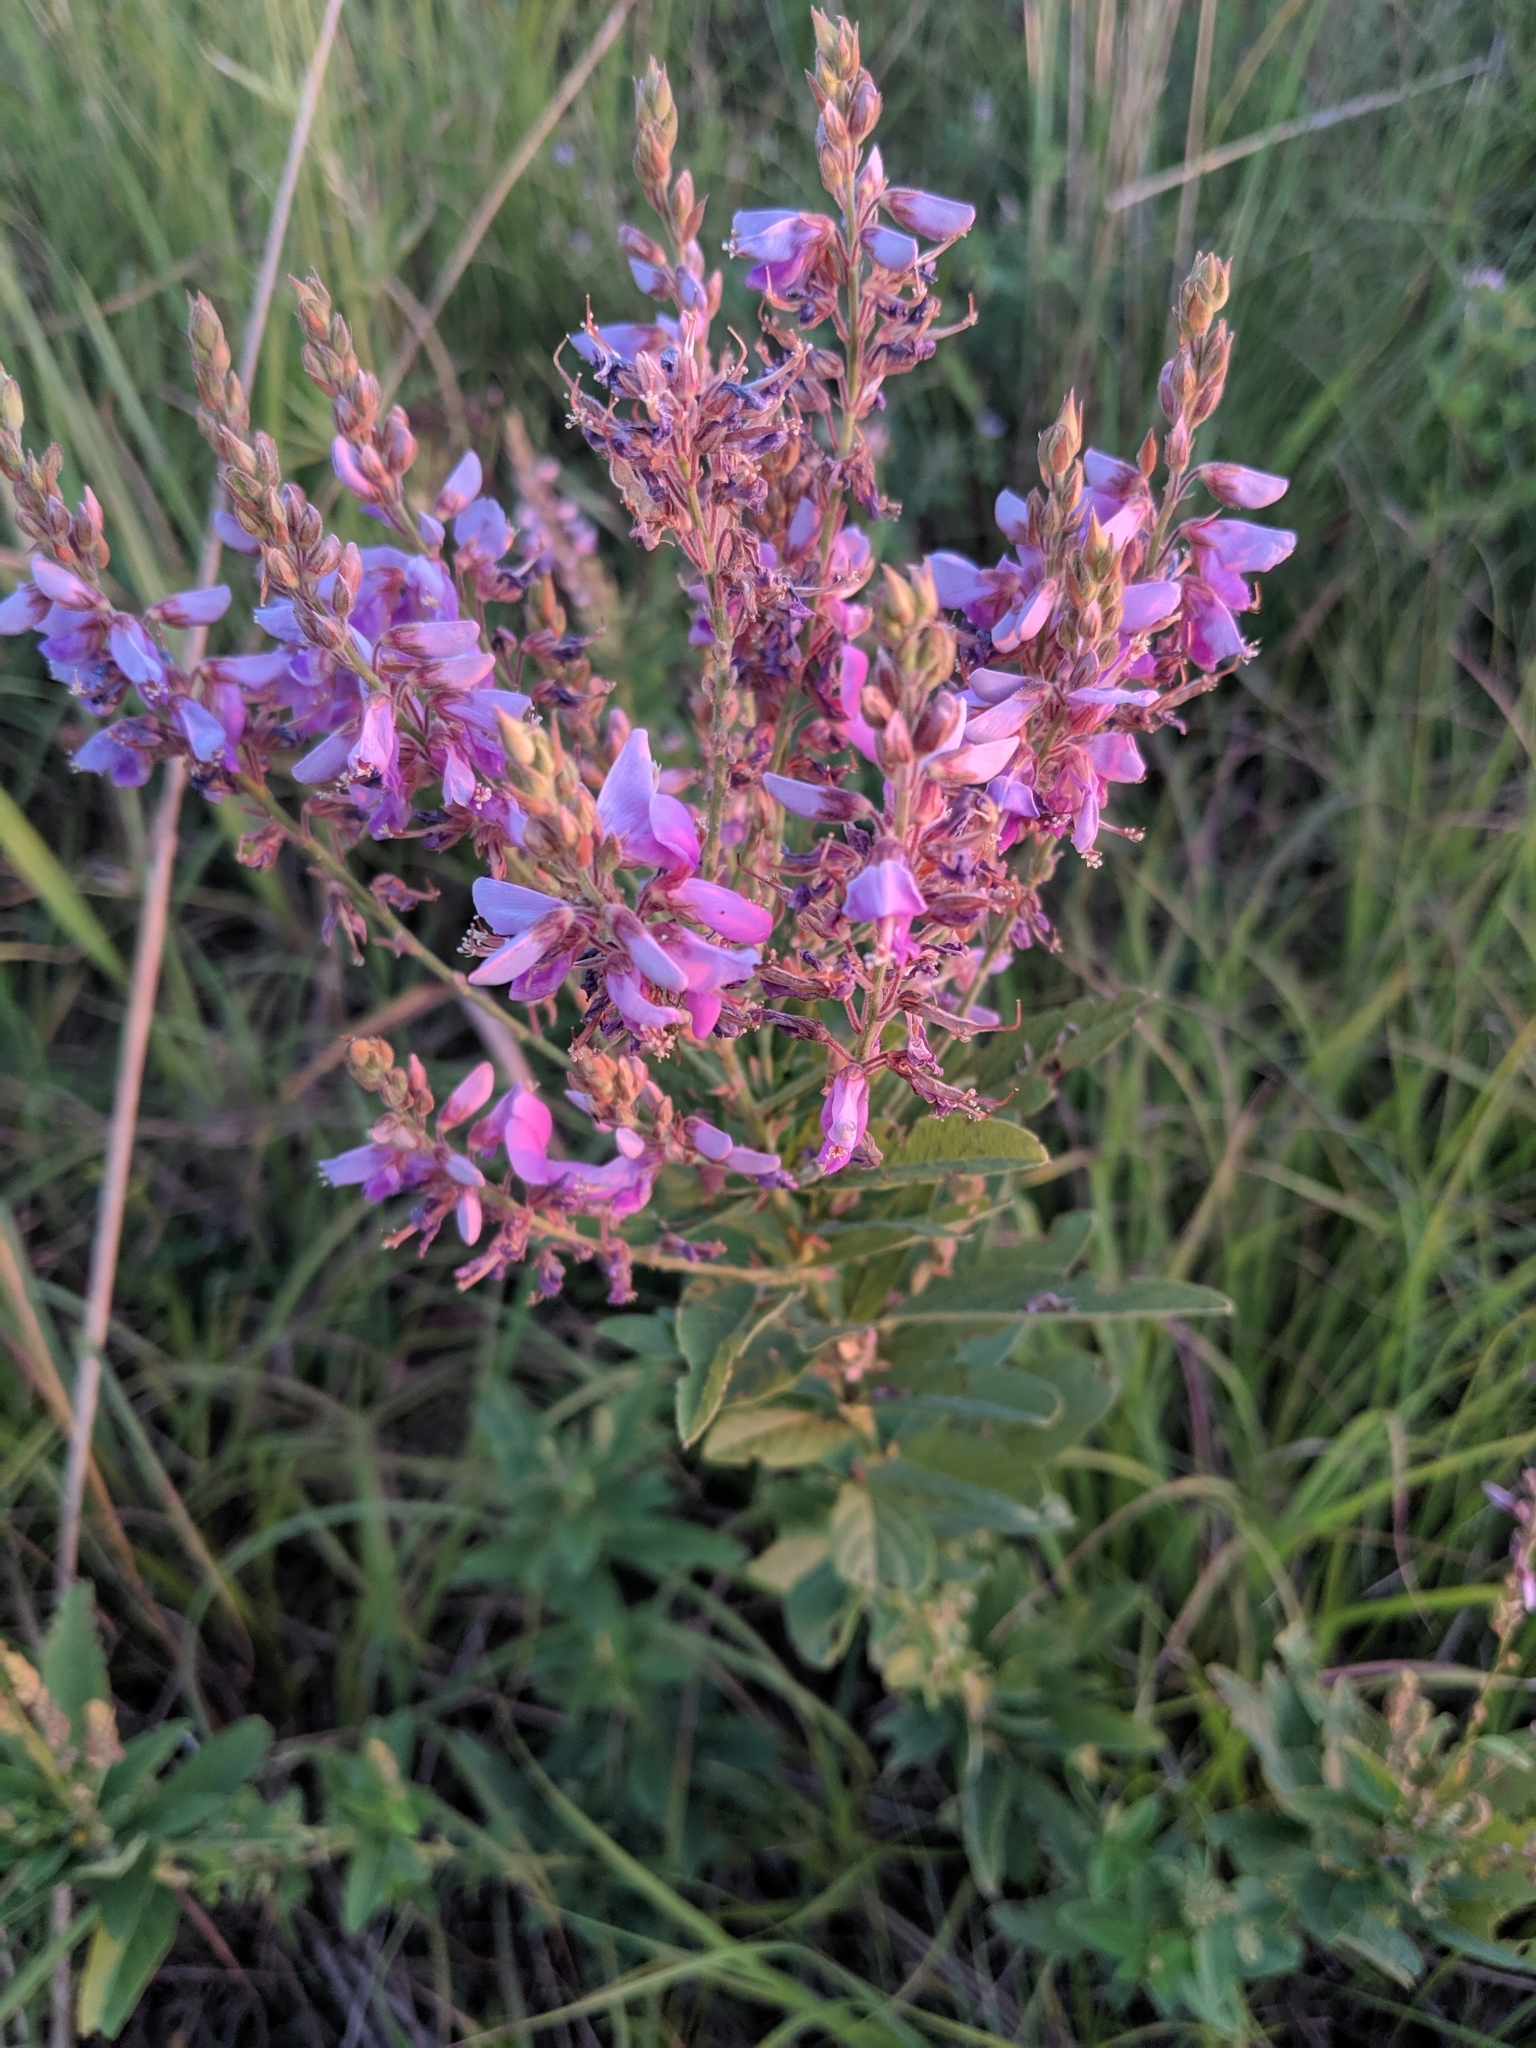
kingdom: Plantae
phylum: Tracheophyta
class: Magnoliopsida
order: Fabales
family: Fabaceae
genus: Desmodium
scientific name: Desmodium canadense
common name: Canada tick-trefoil
